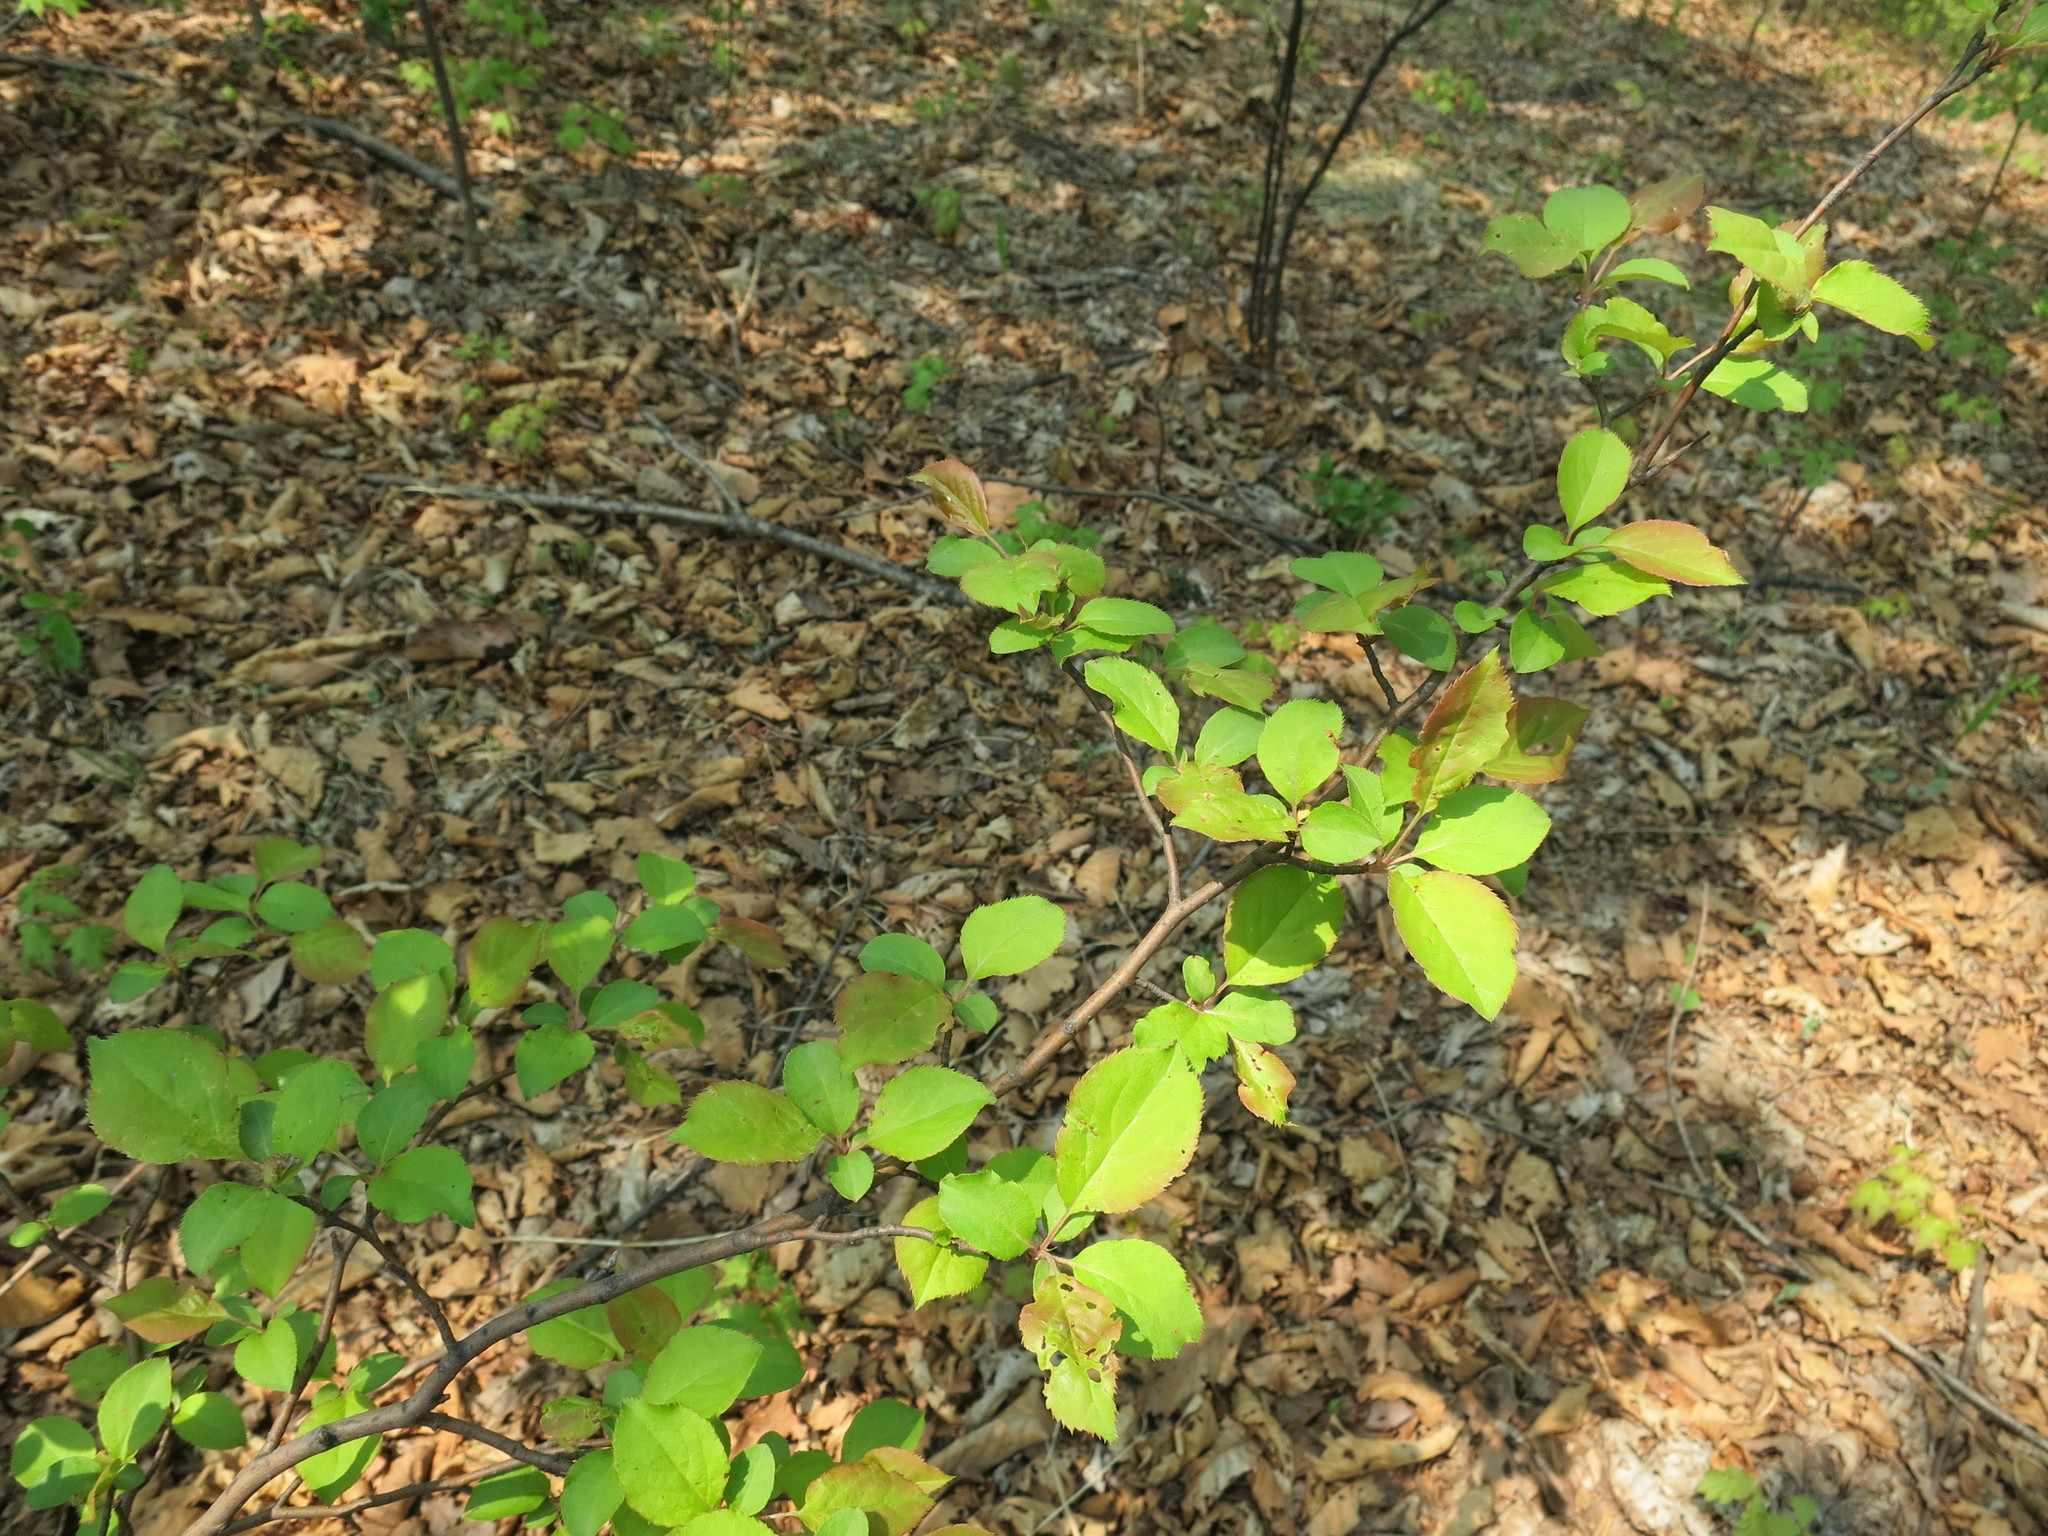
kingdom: Plantae
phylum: Tracheophyta
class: Magnoliopsida
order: Rosales
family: Rosaceae
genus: Malus
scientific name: Malus mandshurica
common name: Siberian crabapple
